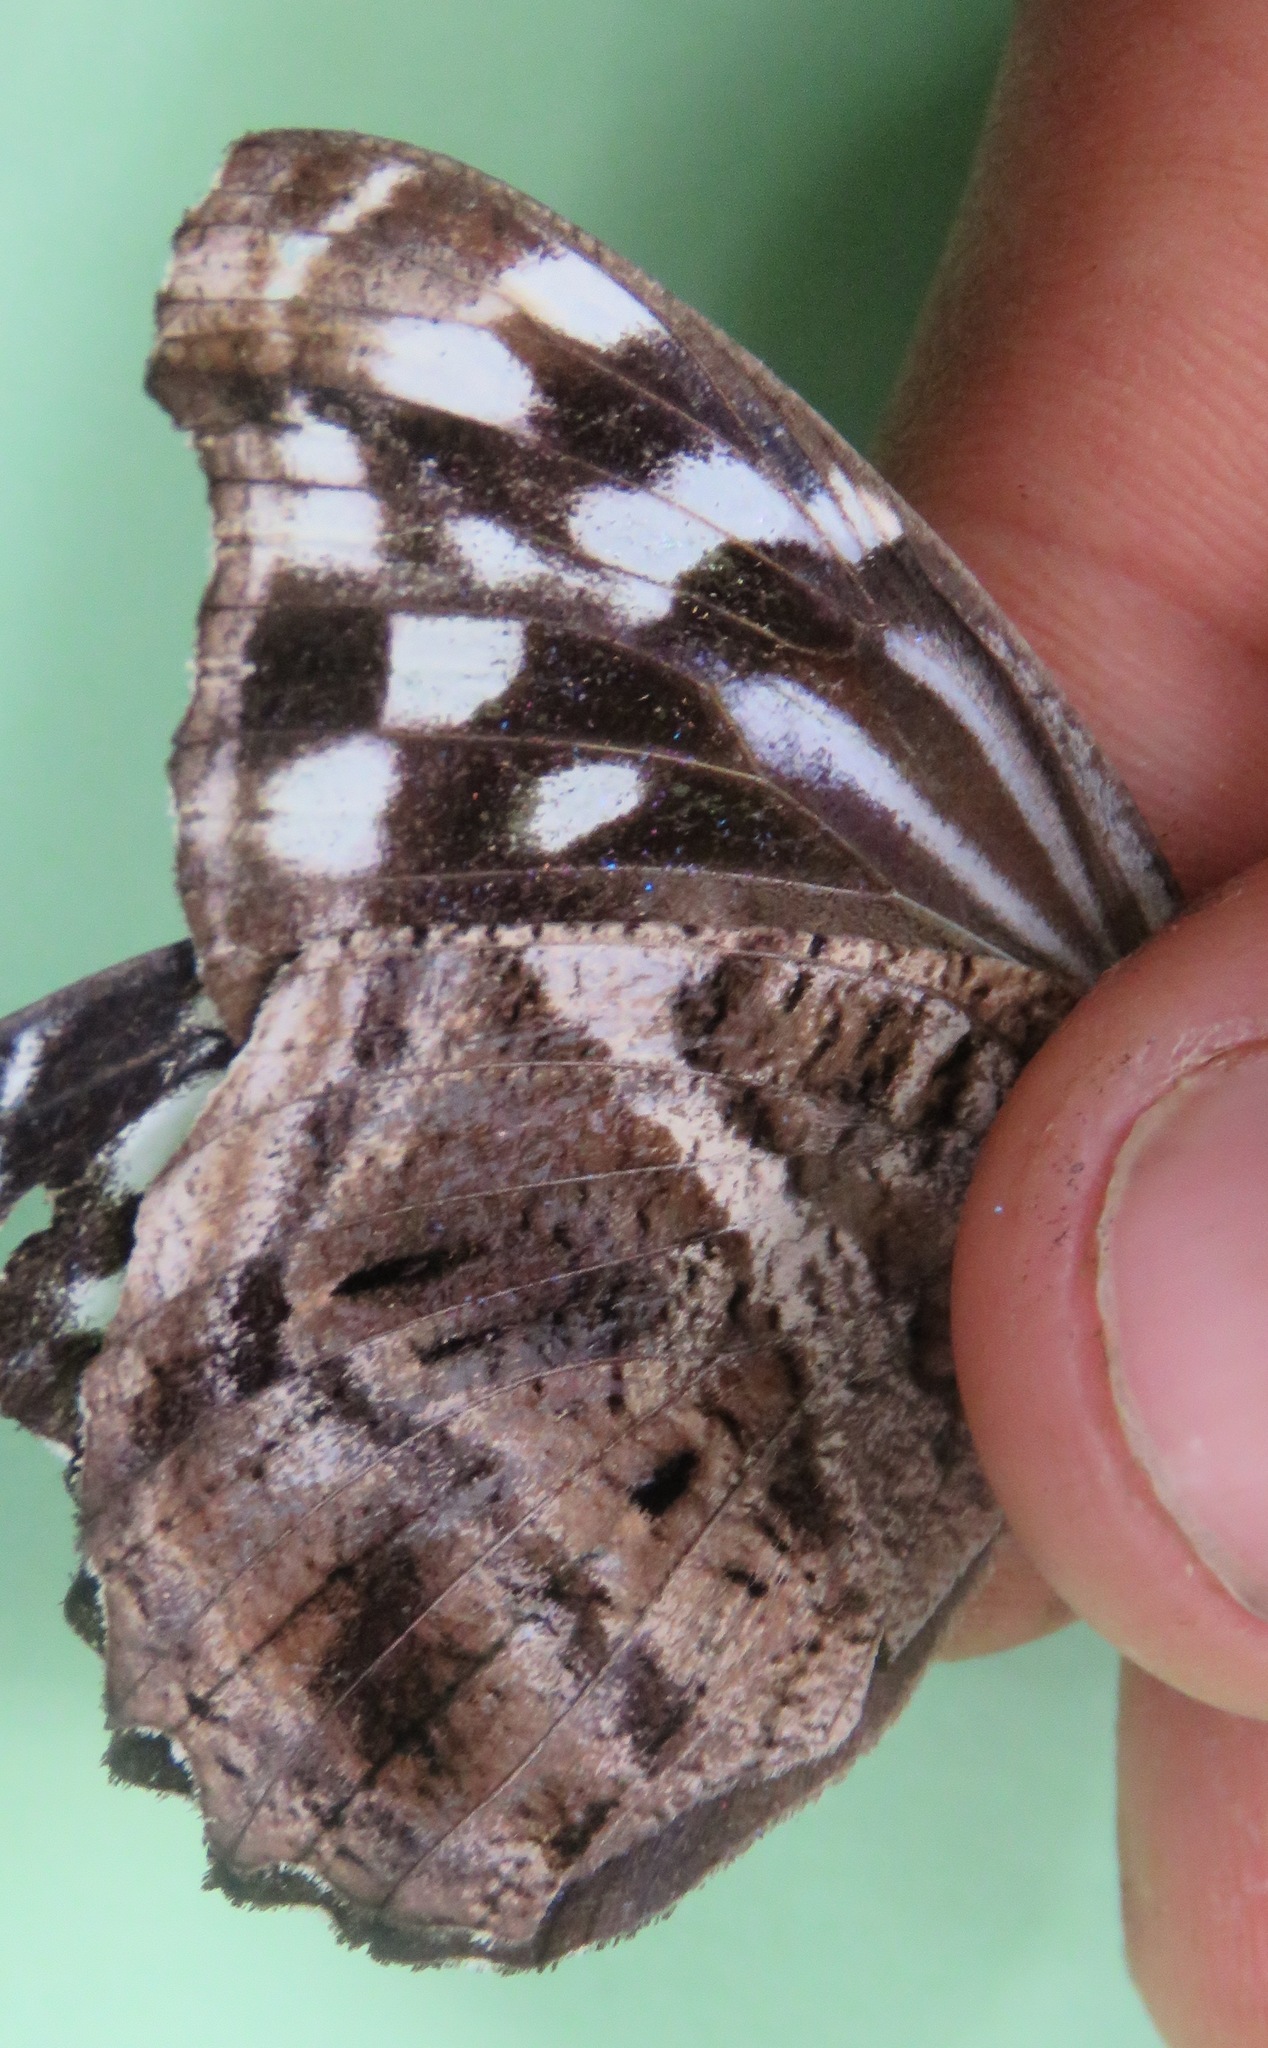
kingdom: Animalia
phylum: Arthropoda
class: Insecta
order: Lepidoptera
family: Nymphalidae
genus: Myscelia
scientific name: Myscelia ethusa
